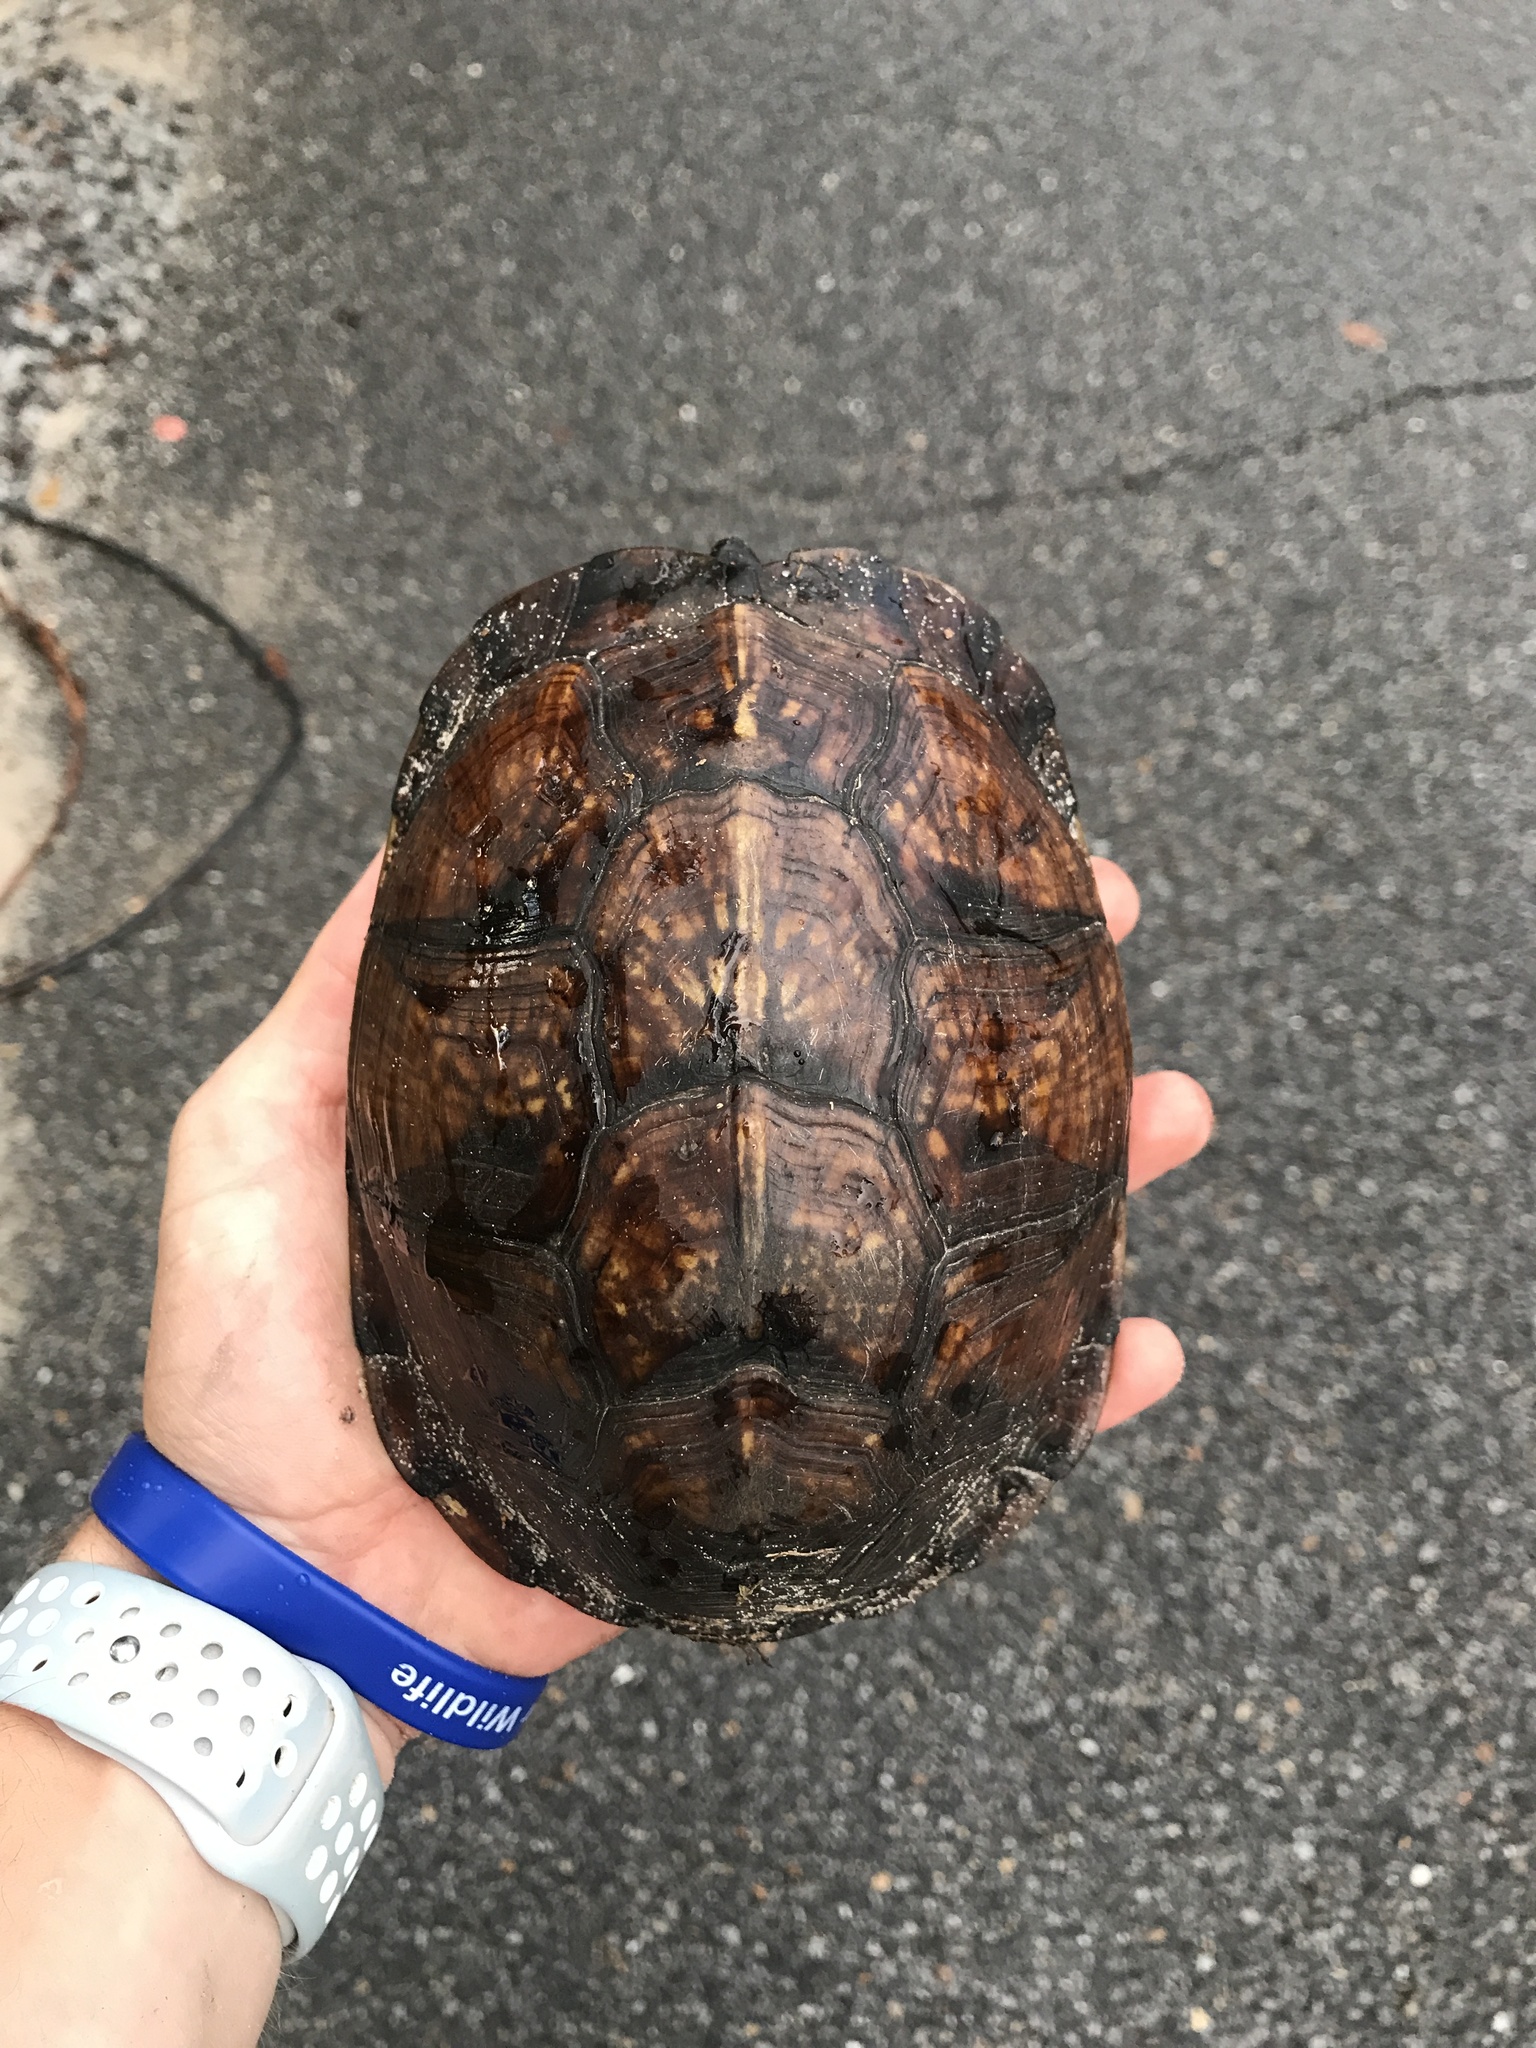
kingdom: Animalia
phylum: Chordata
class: Testudines
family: Emydidae
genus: Terrapene
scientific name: Terrapene carolina
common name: Common box turtle
